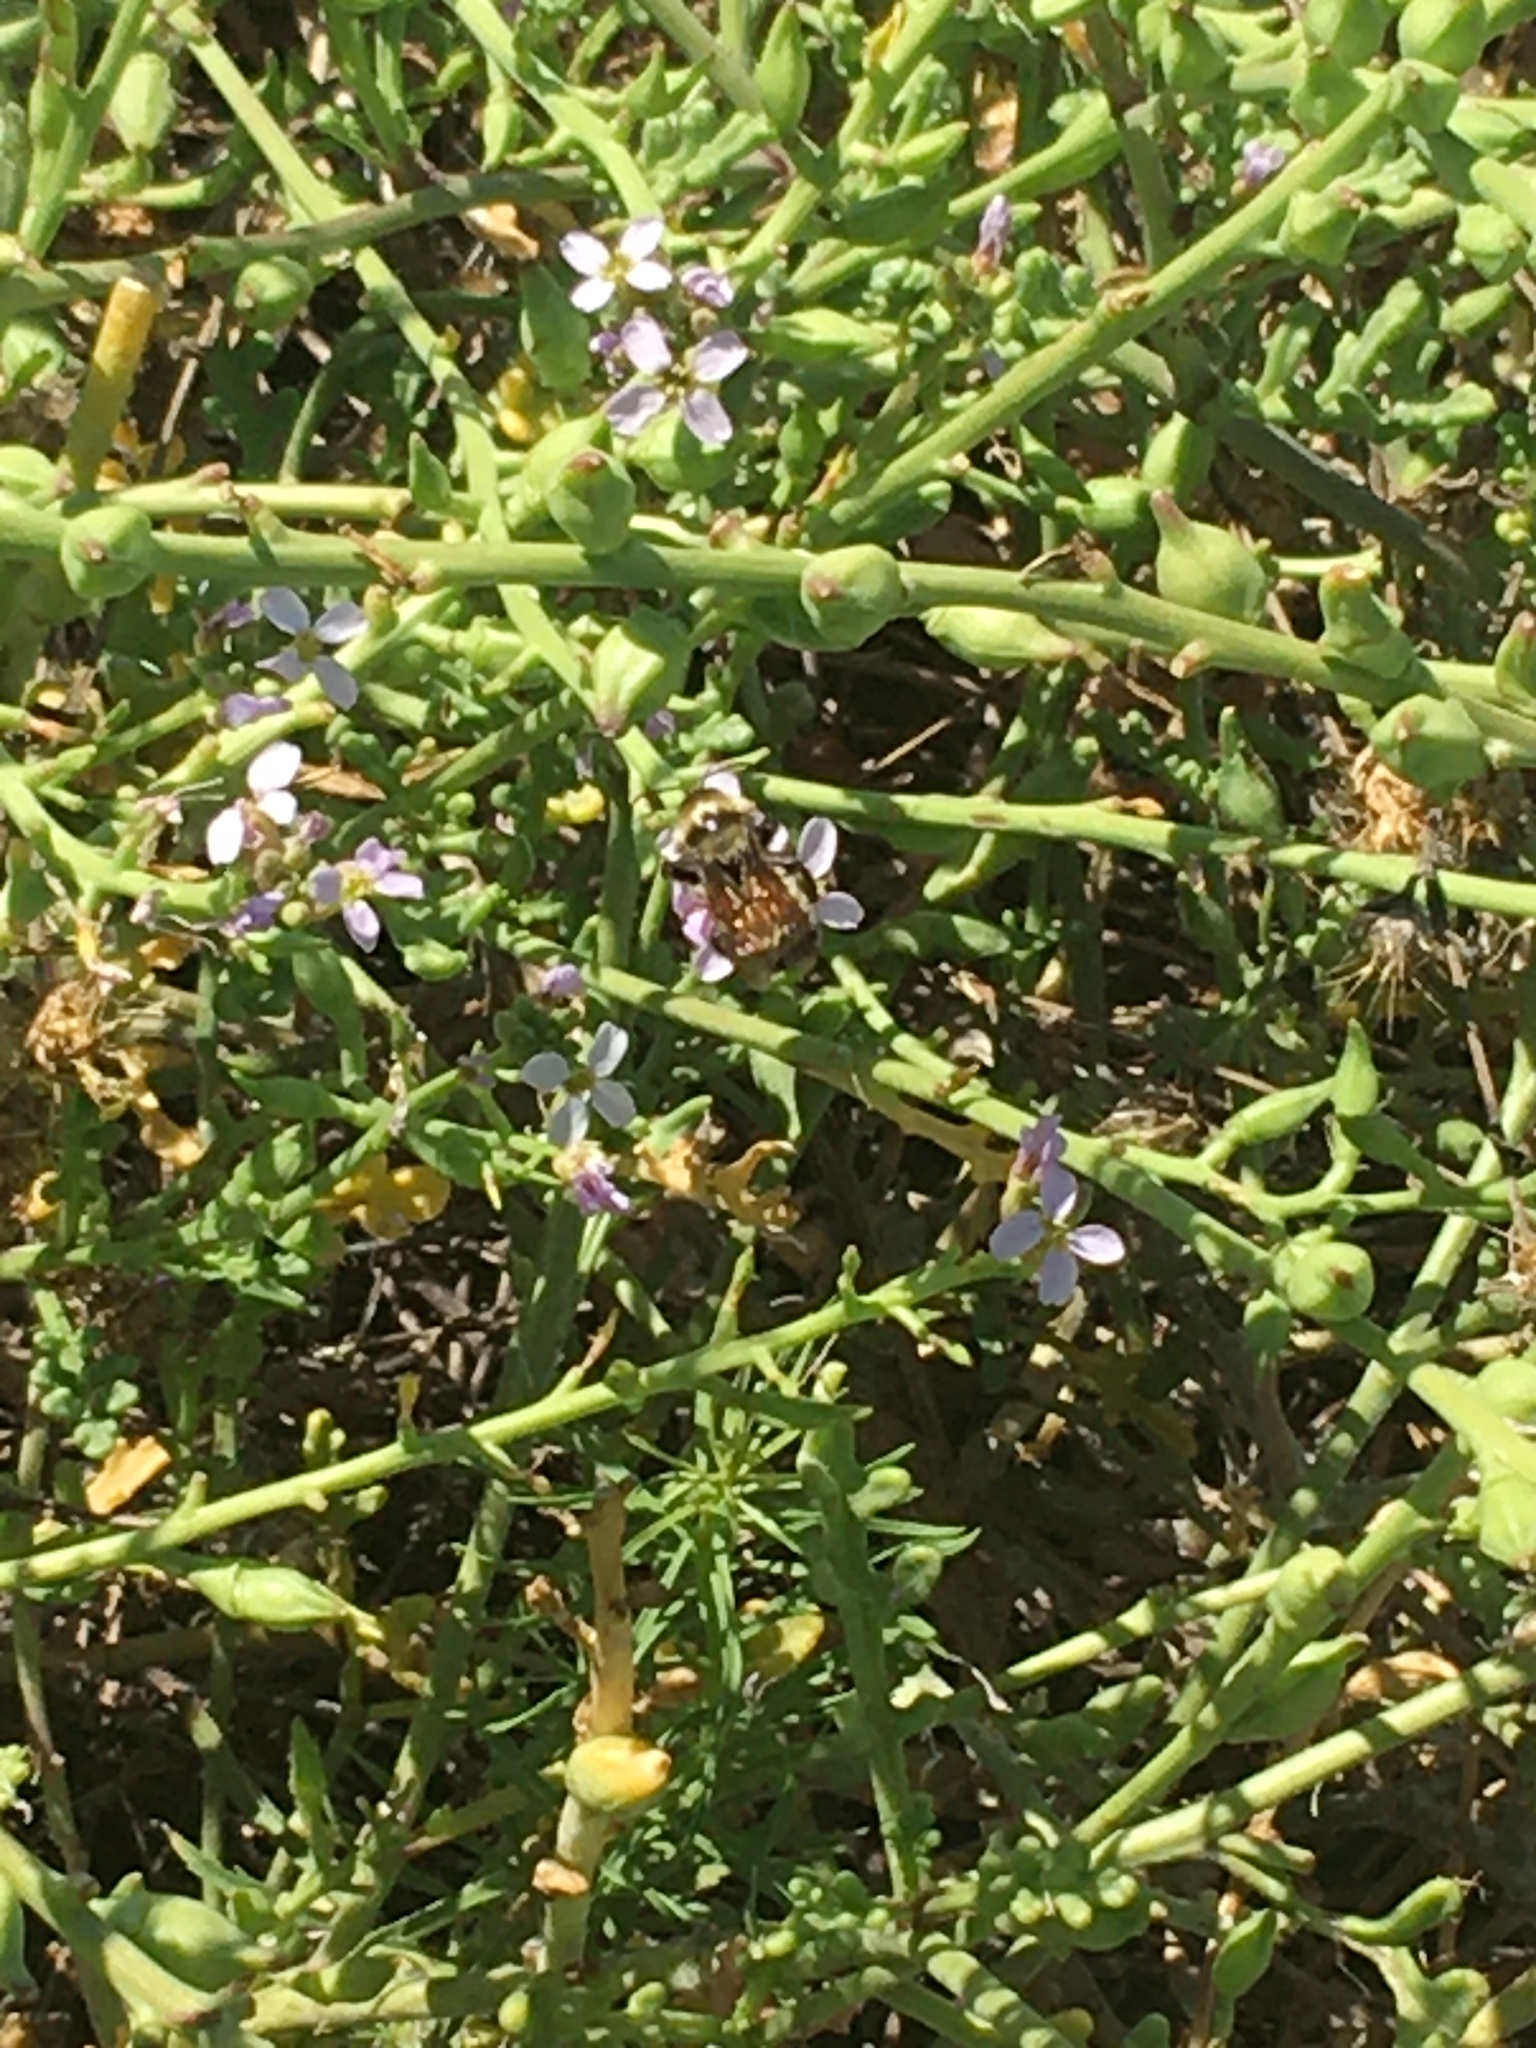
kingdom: Animalia
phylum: Arthropoda
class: Insecta
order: Hymenoptera
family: Apidae
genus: Bombus
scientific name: Bombus sonorus
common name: Sonoran bumble bee
